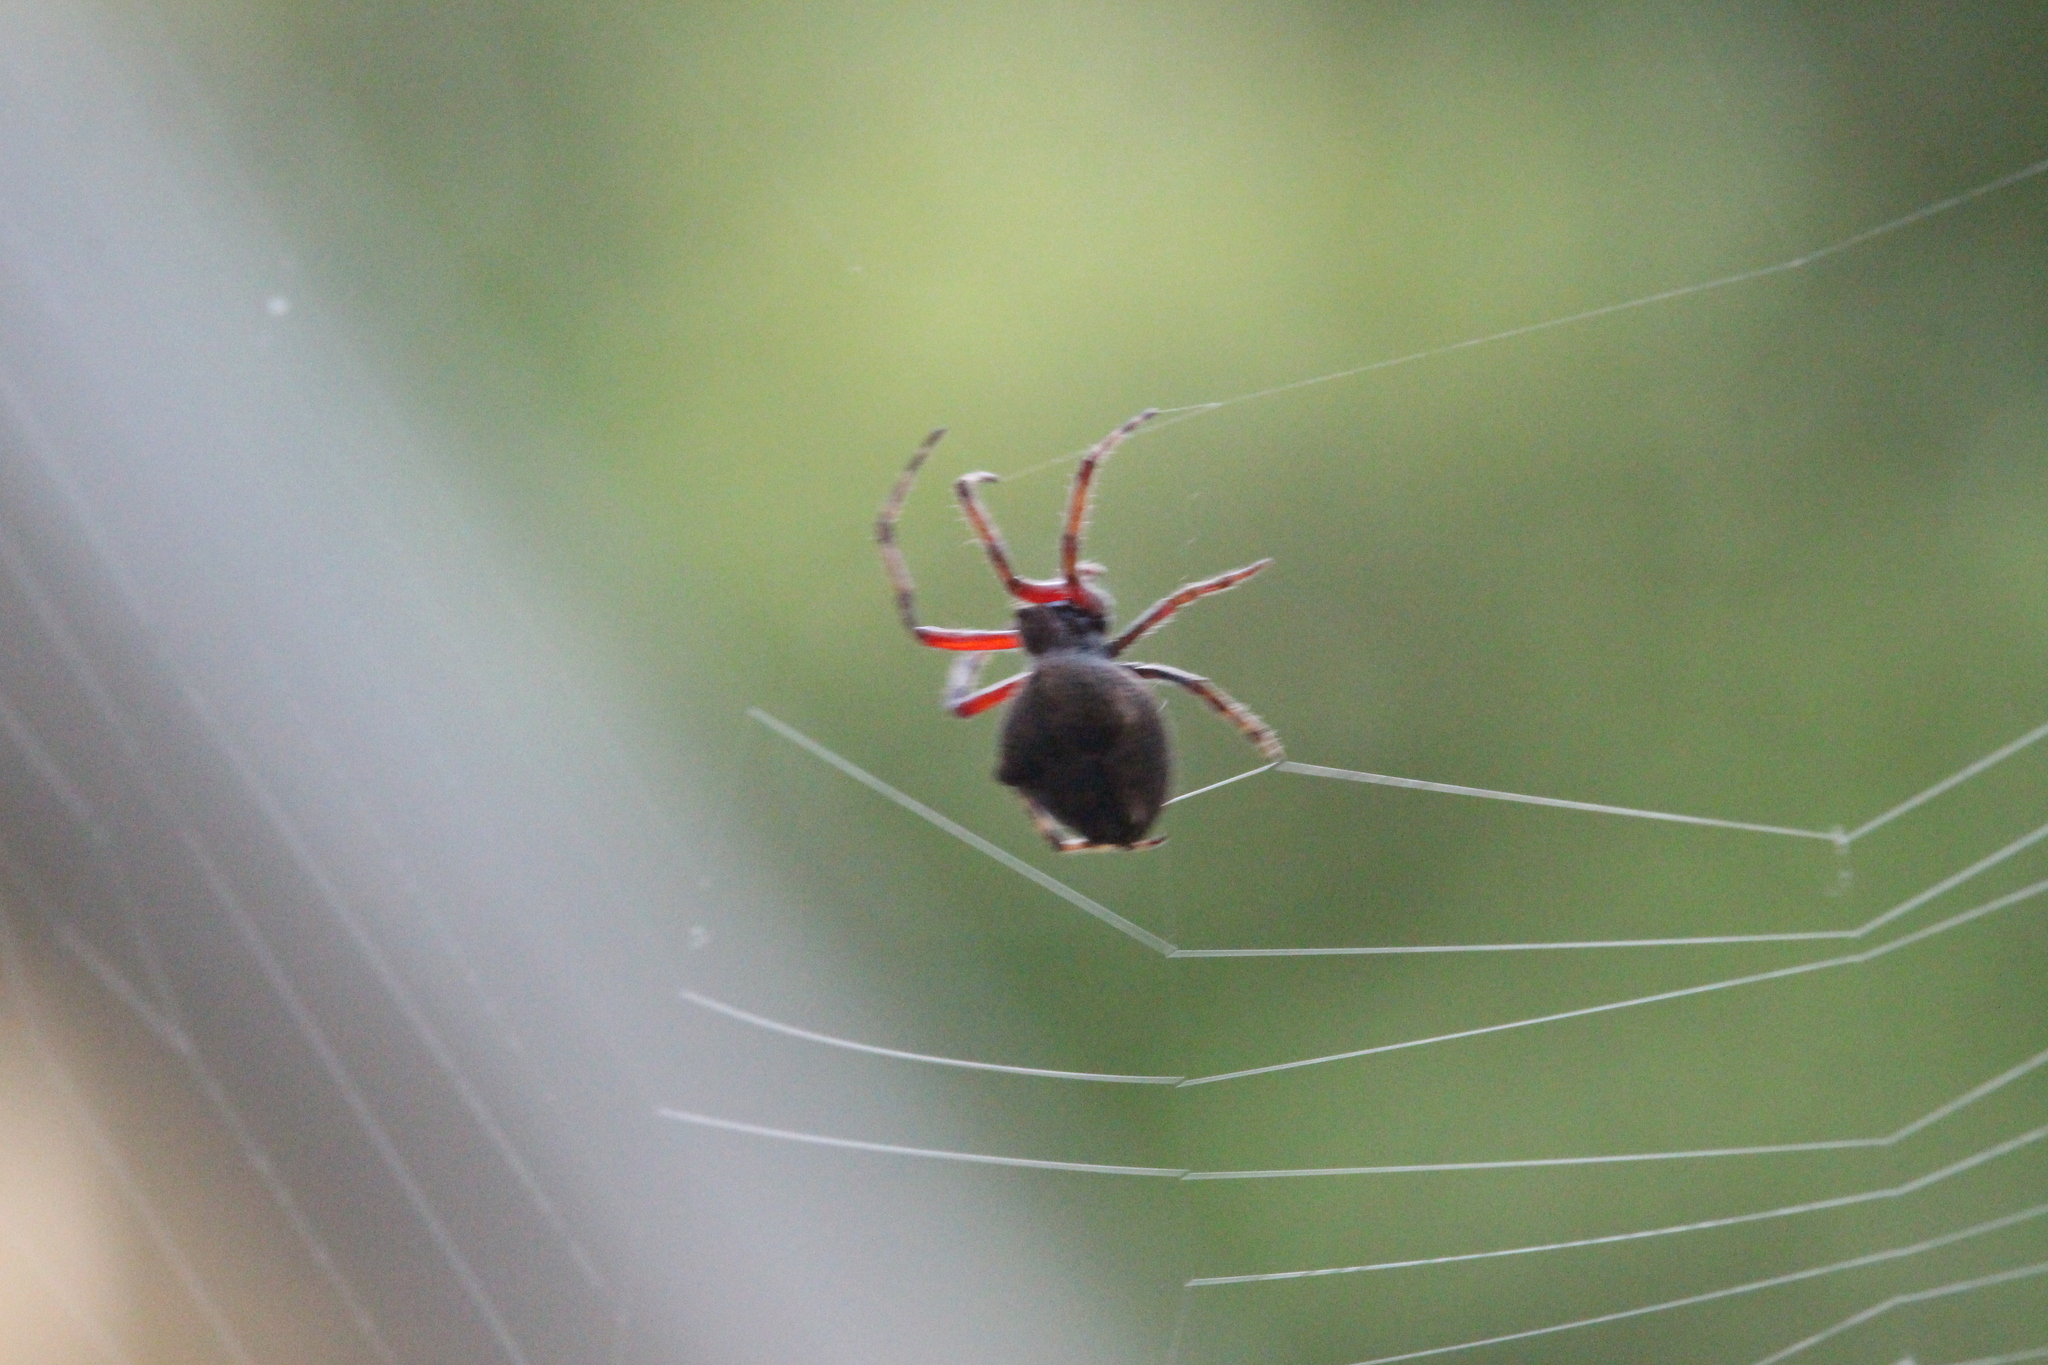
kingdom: Animalia
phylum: Arthropoda
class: Arachnida
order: Araneae
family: Araneidae
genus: Eriophora
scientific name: Eriophora pustulosa
